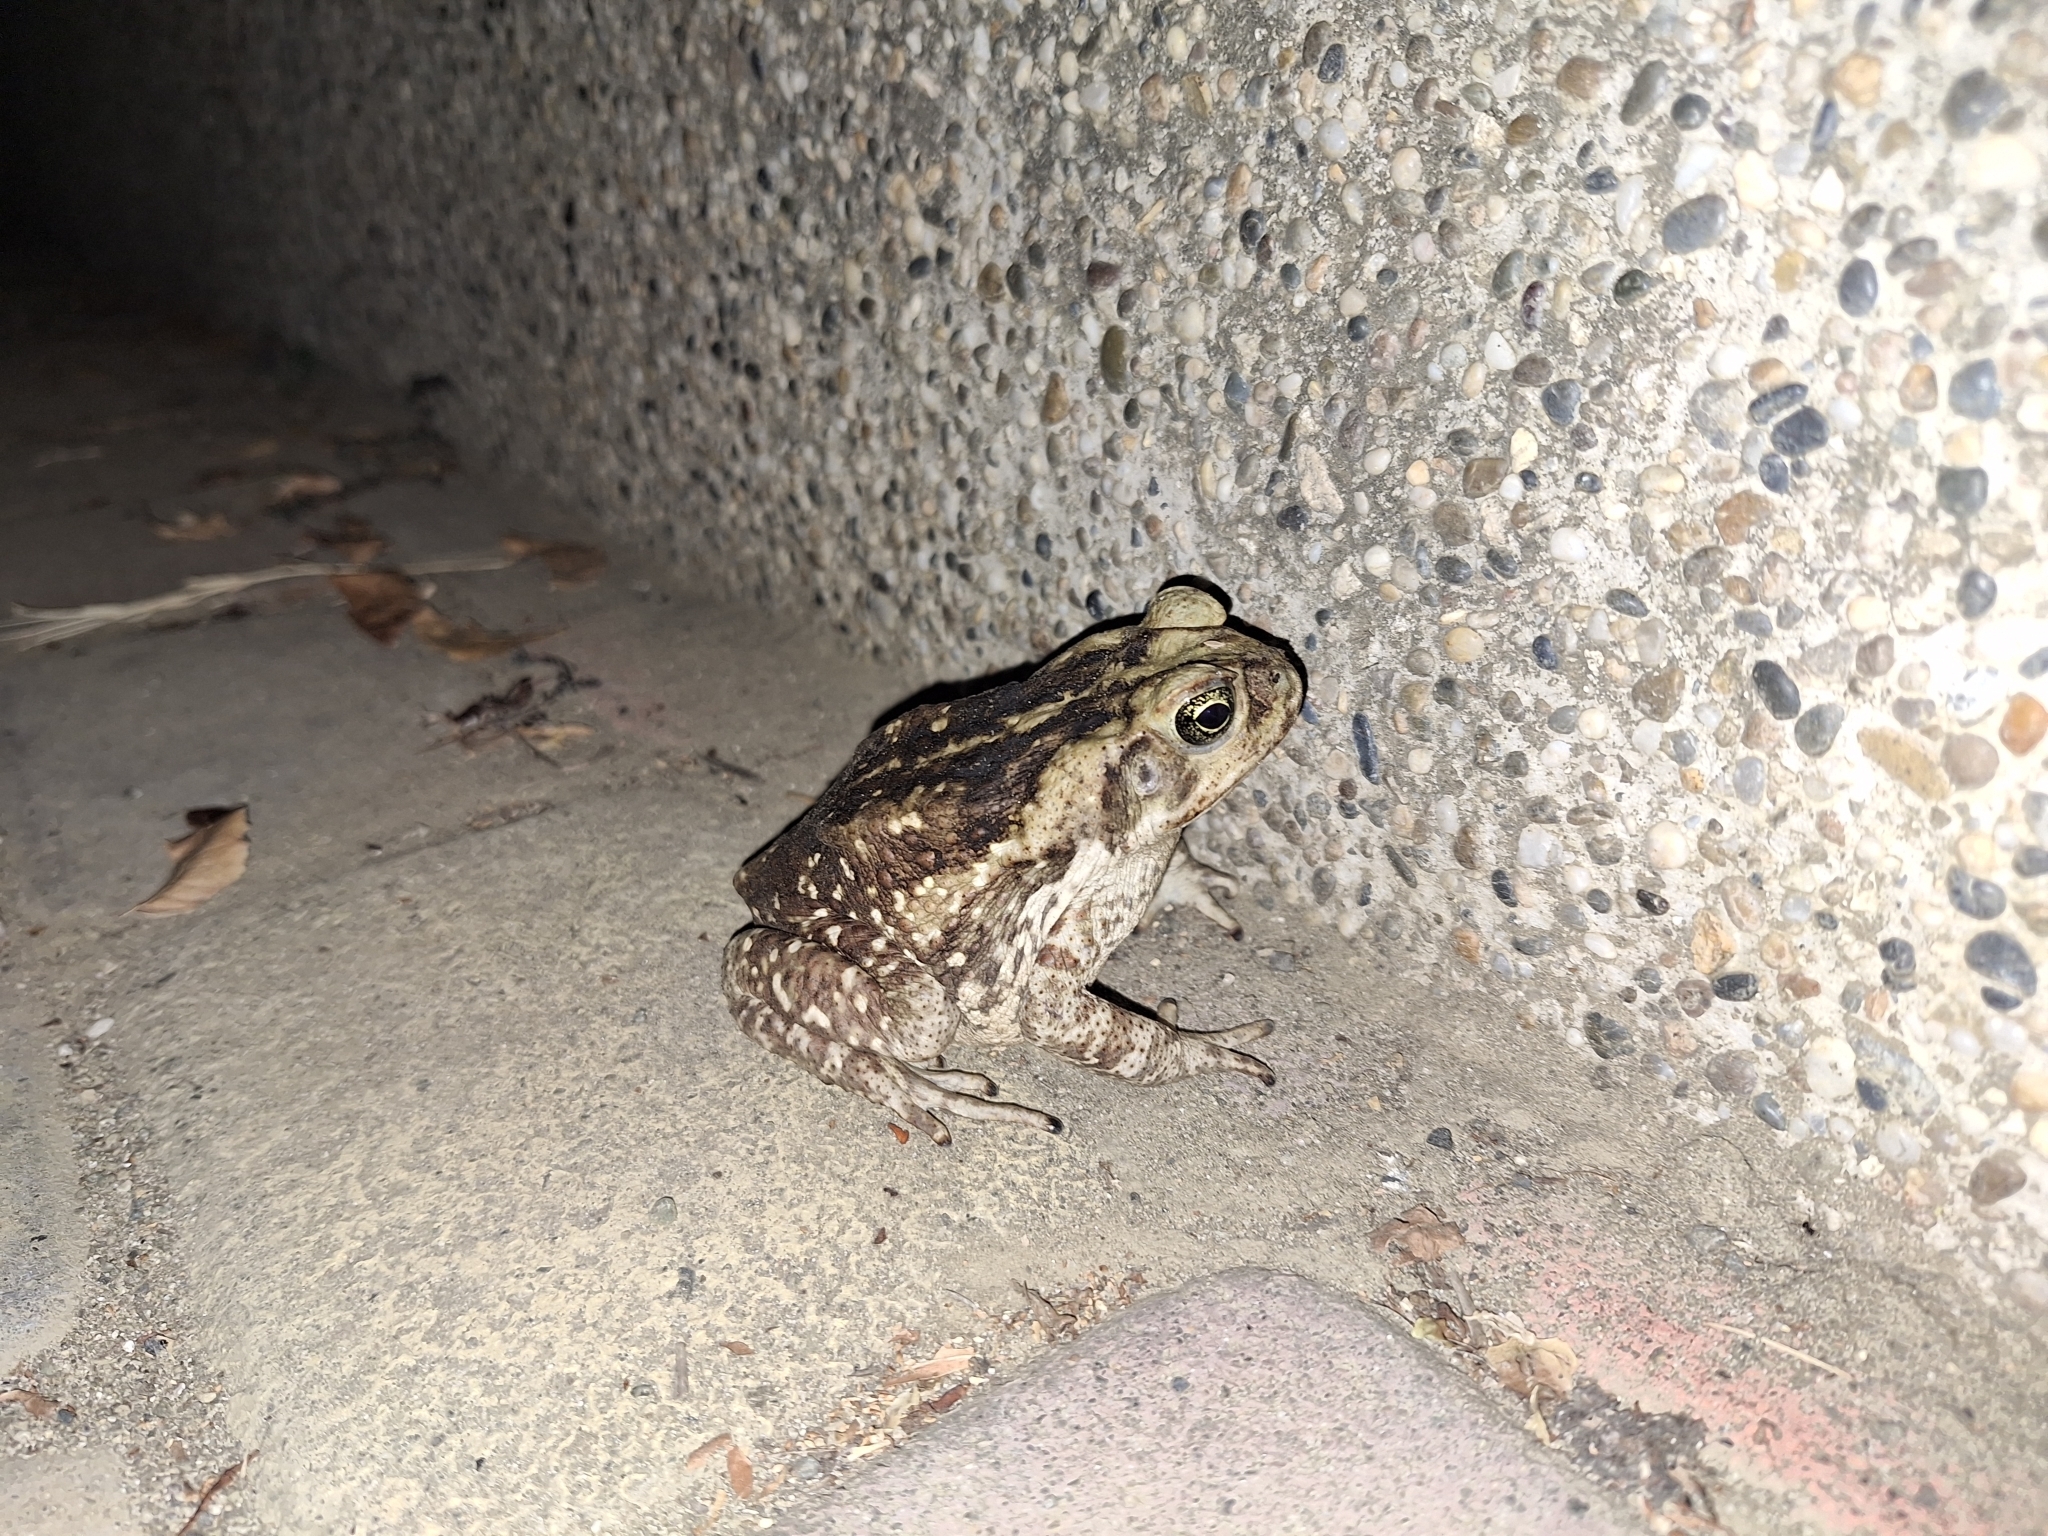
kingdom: Animalia
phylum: Chordata
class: Amphibia
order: Anura
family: Bufonidae
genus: Rhinella
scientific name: Rhinella
